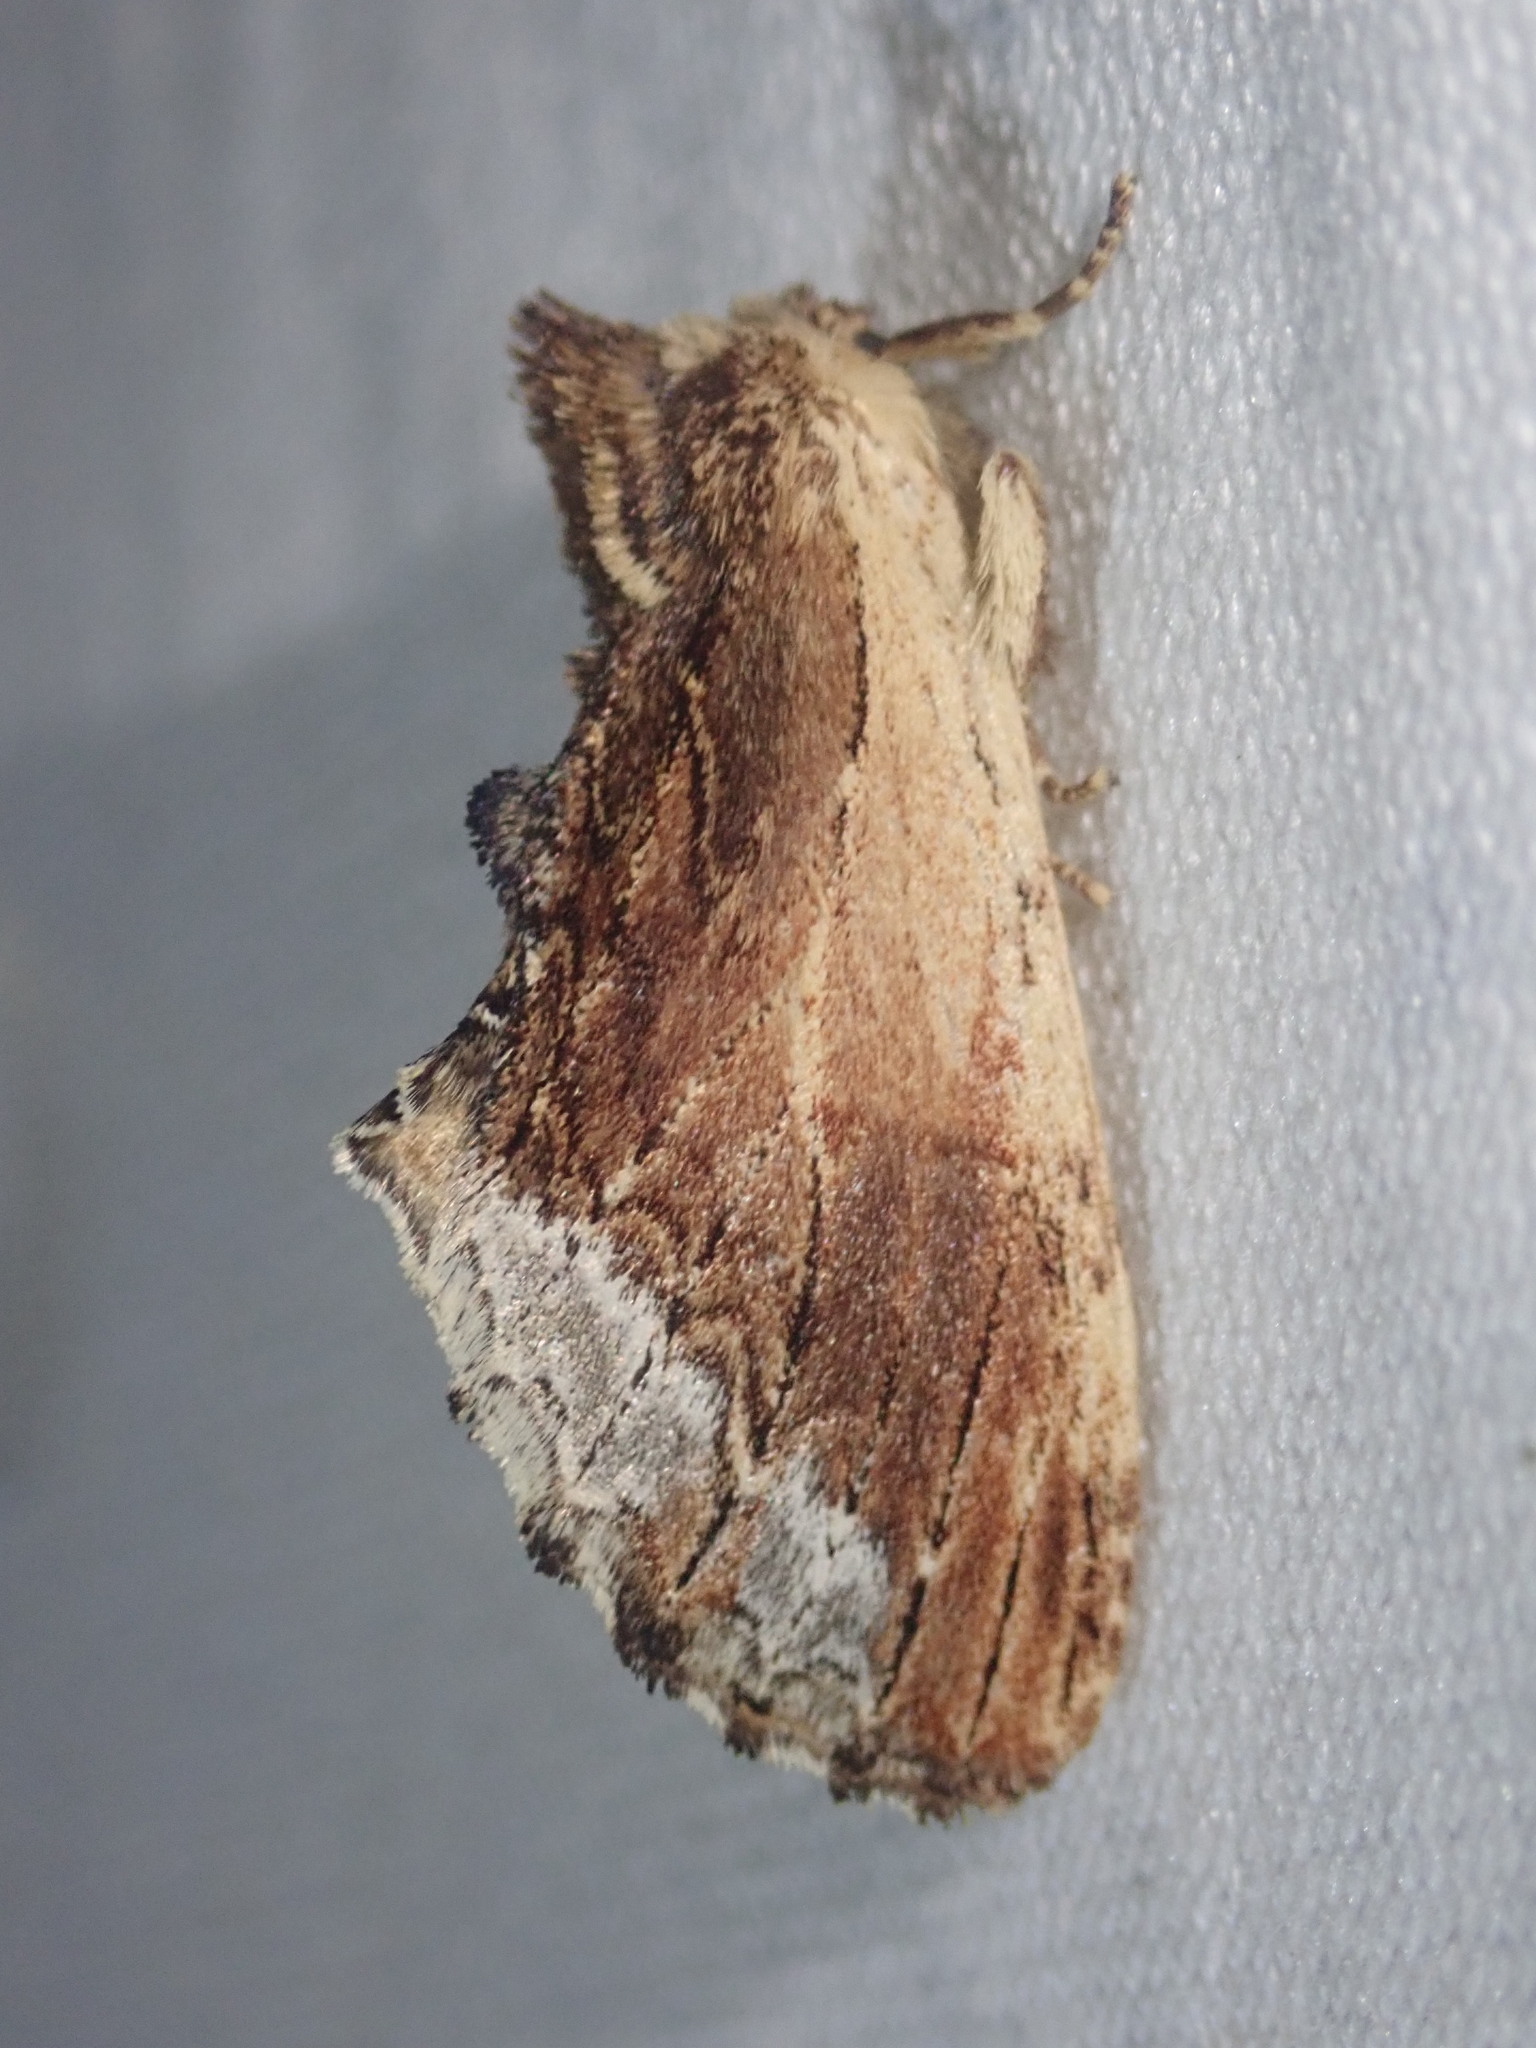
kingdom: Animalia
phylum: Arthropoda
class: Insecta
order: Lepidoptera
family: Notodontidae
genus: Ptilodon
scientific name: Ptilodon cucullina
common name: Maple prominent
